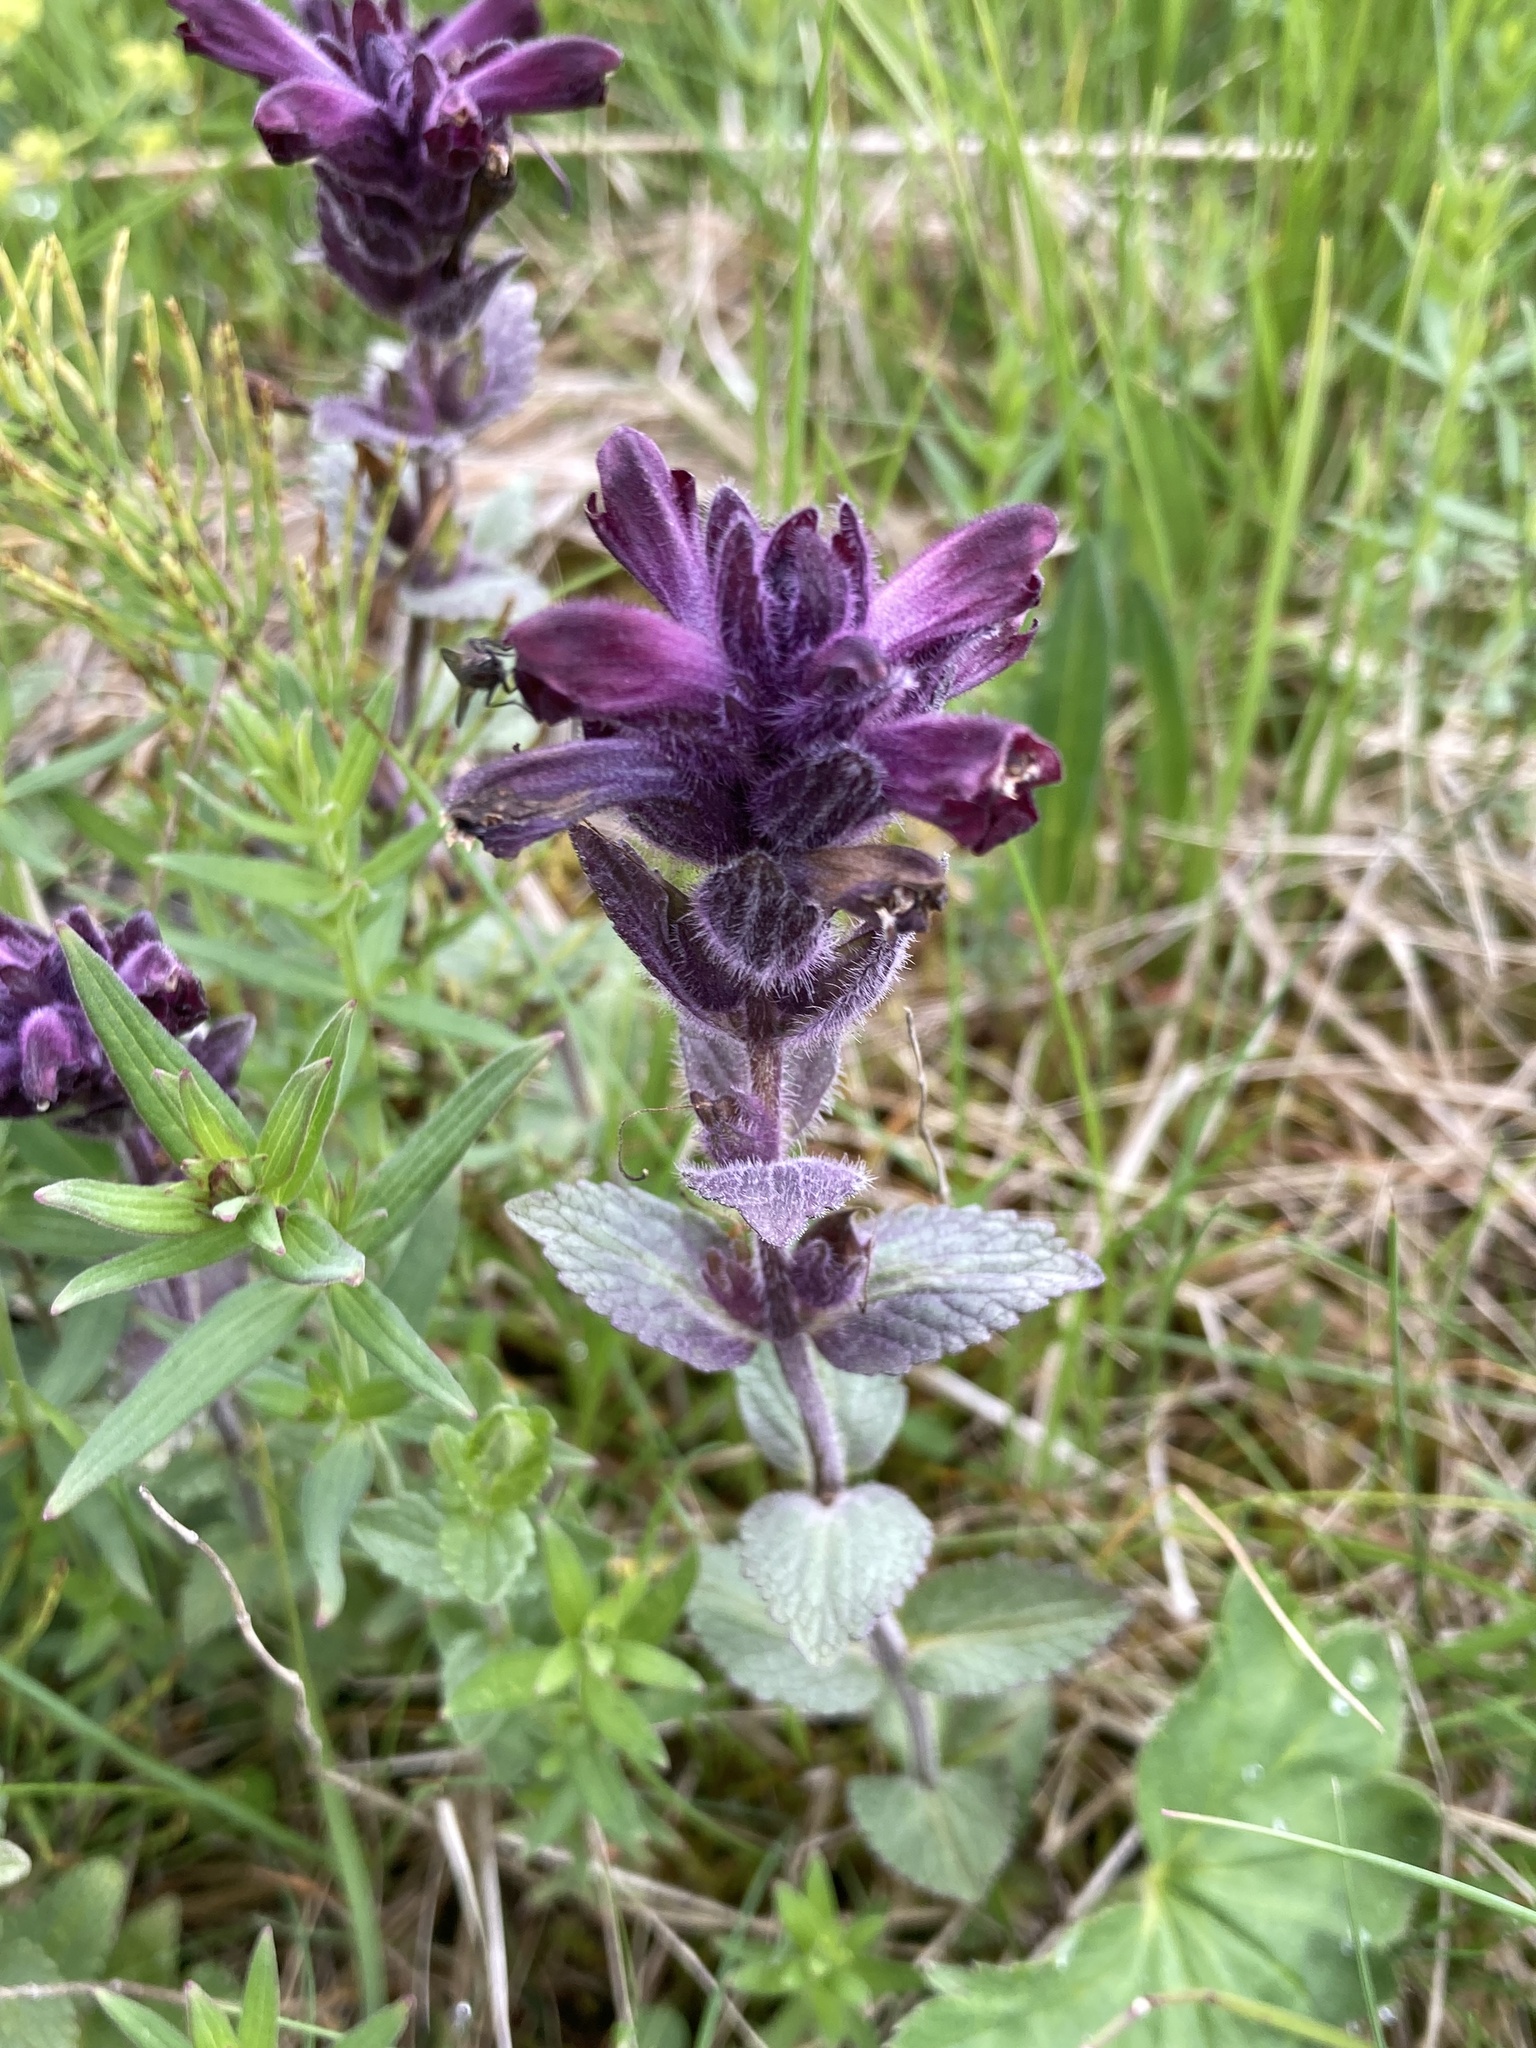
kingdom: Plantae
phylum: Tracheophyta
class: Magnoliopsida
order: Lamiales
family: Orobanchaceae
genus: Bartsia
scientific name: Bartsia alpina
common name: Alpine bartsia
